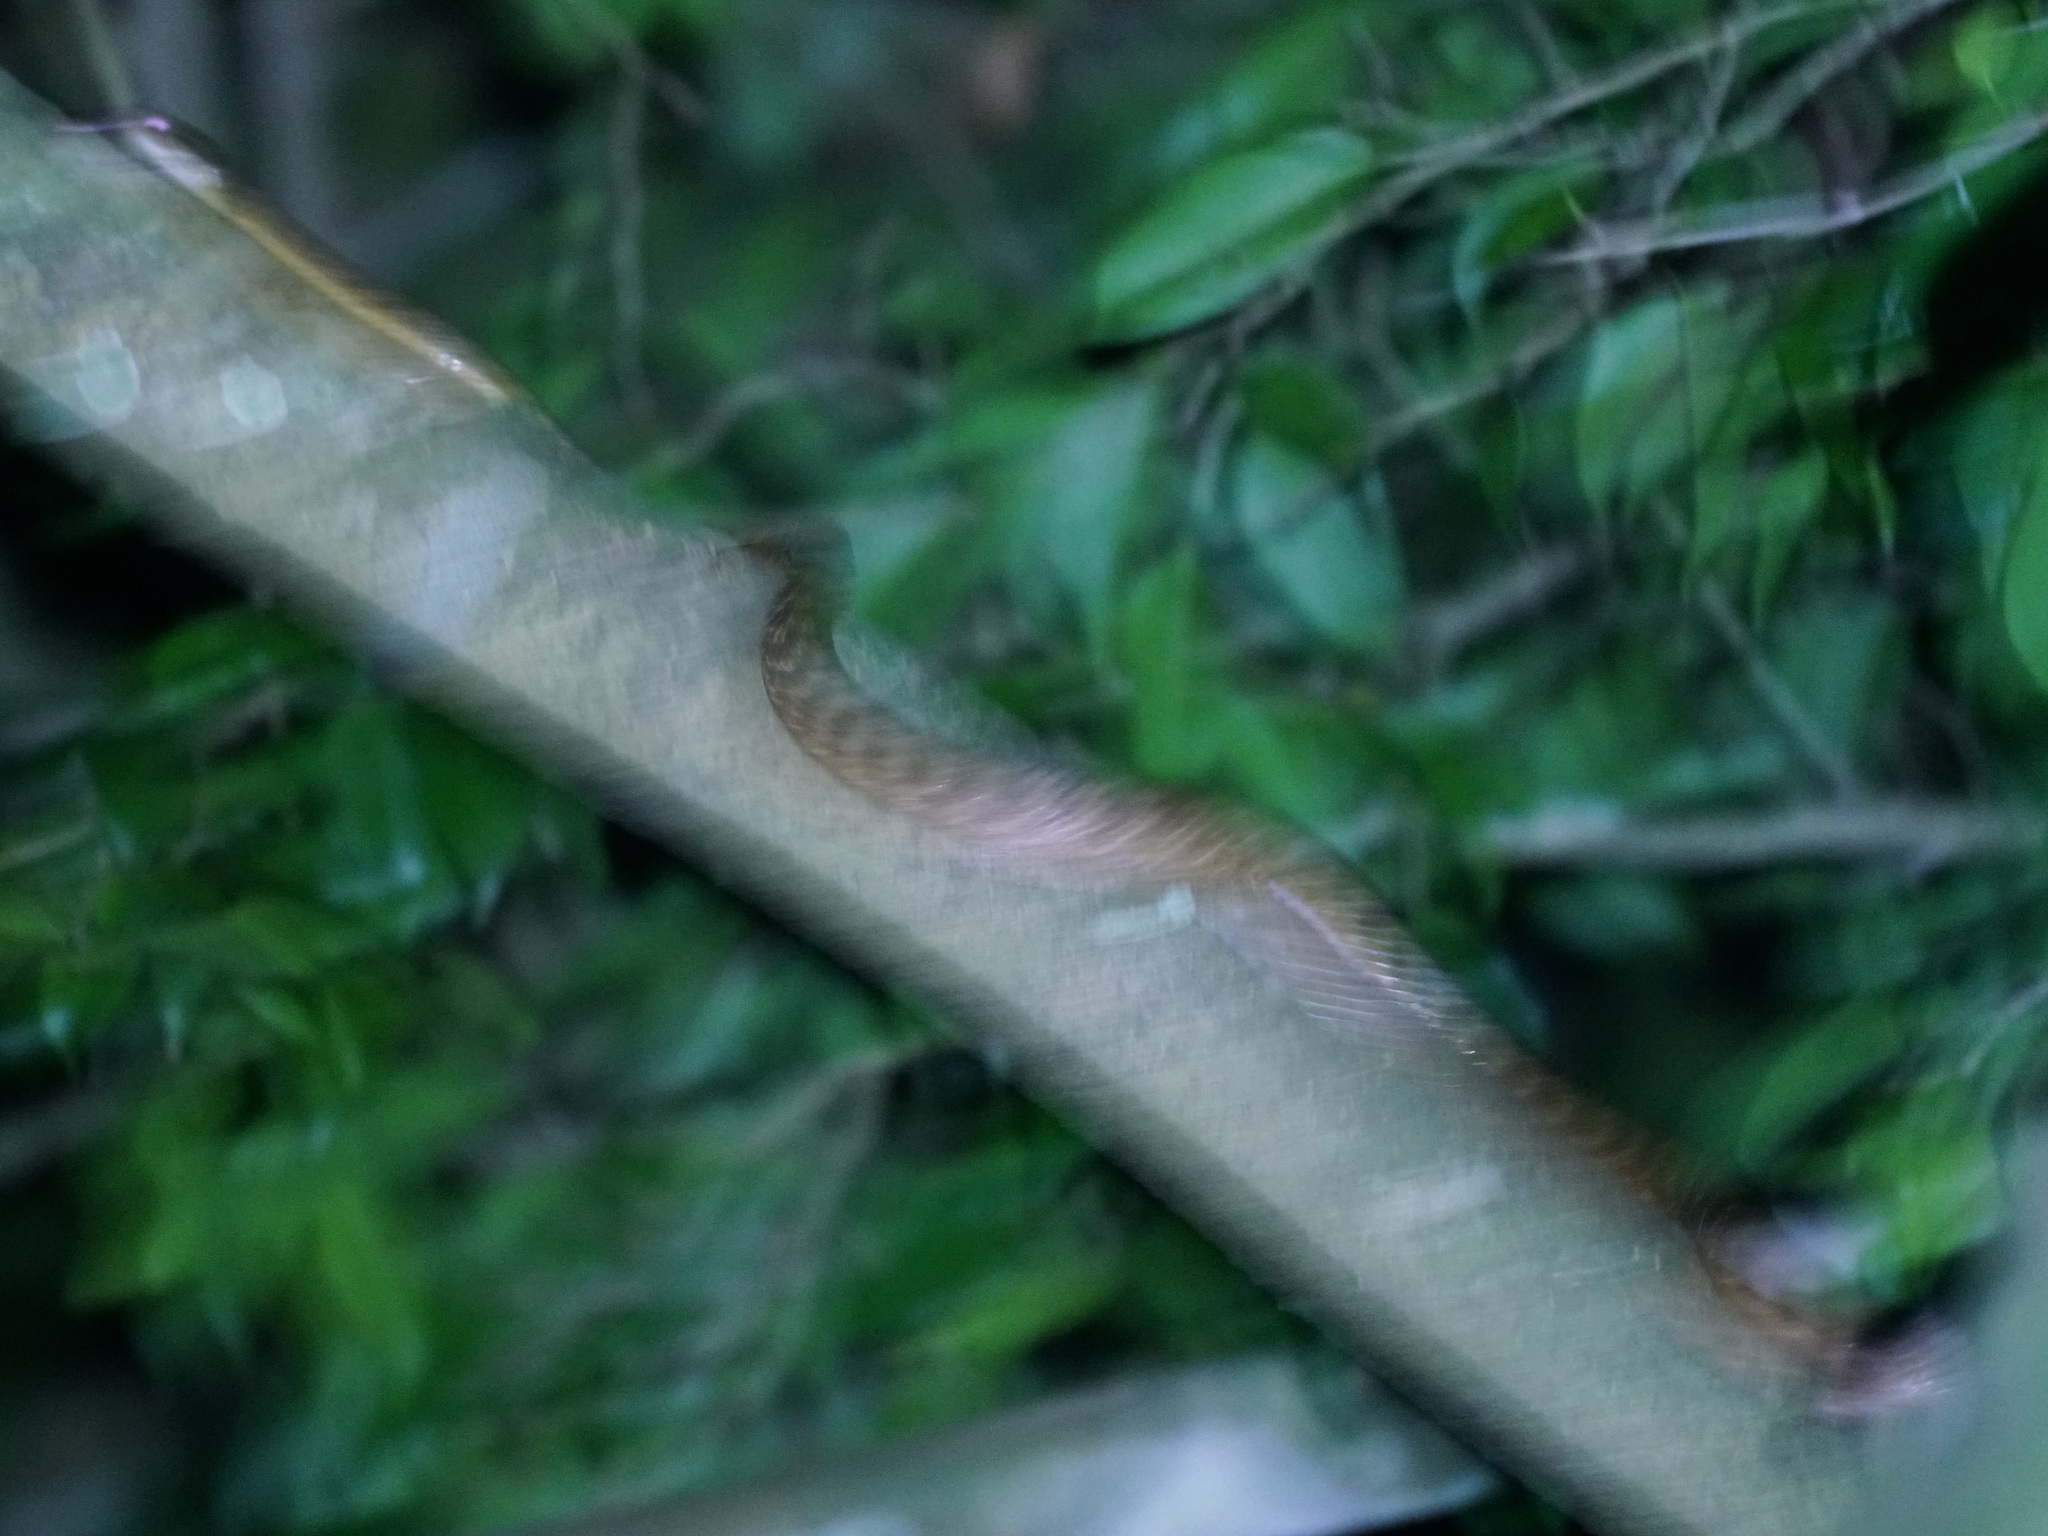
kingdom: Animalia
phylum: Chordata
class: Squamata
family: Colubridae
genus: Boiga
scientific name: Boiga irregularis
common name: Brown tree snake
